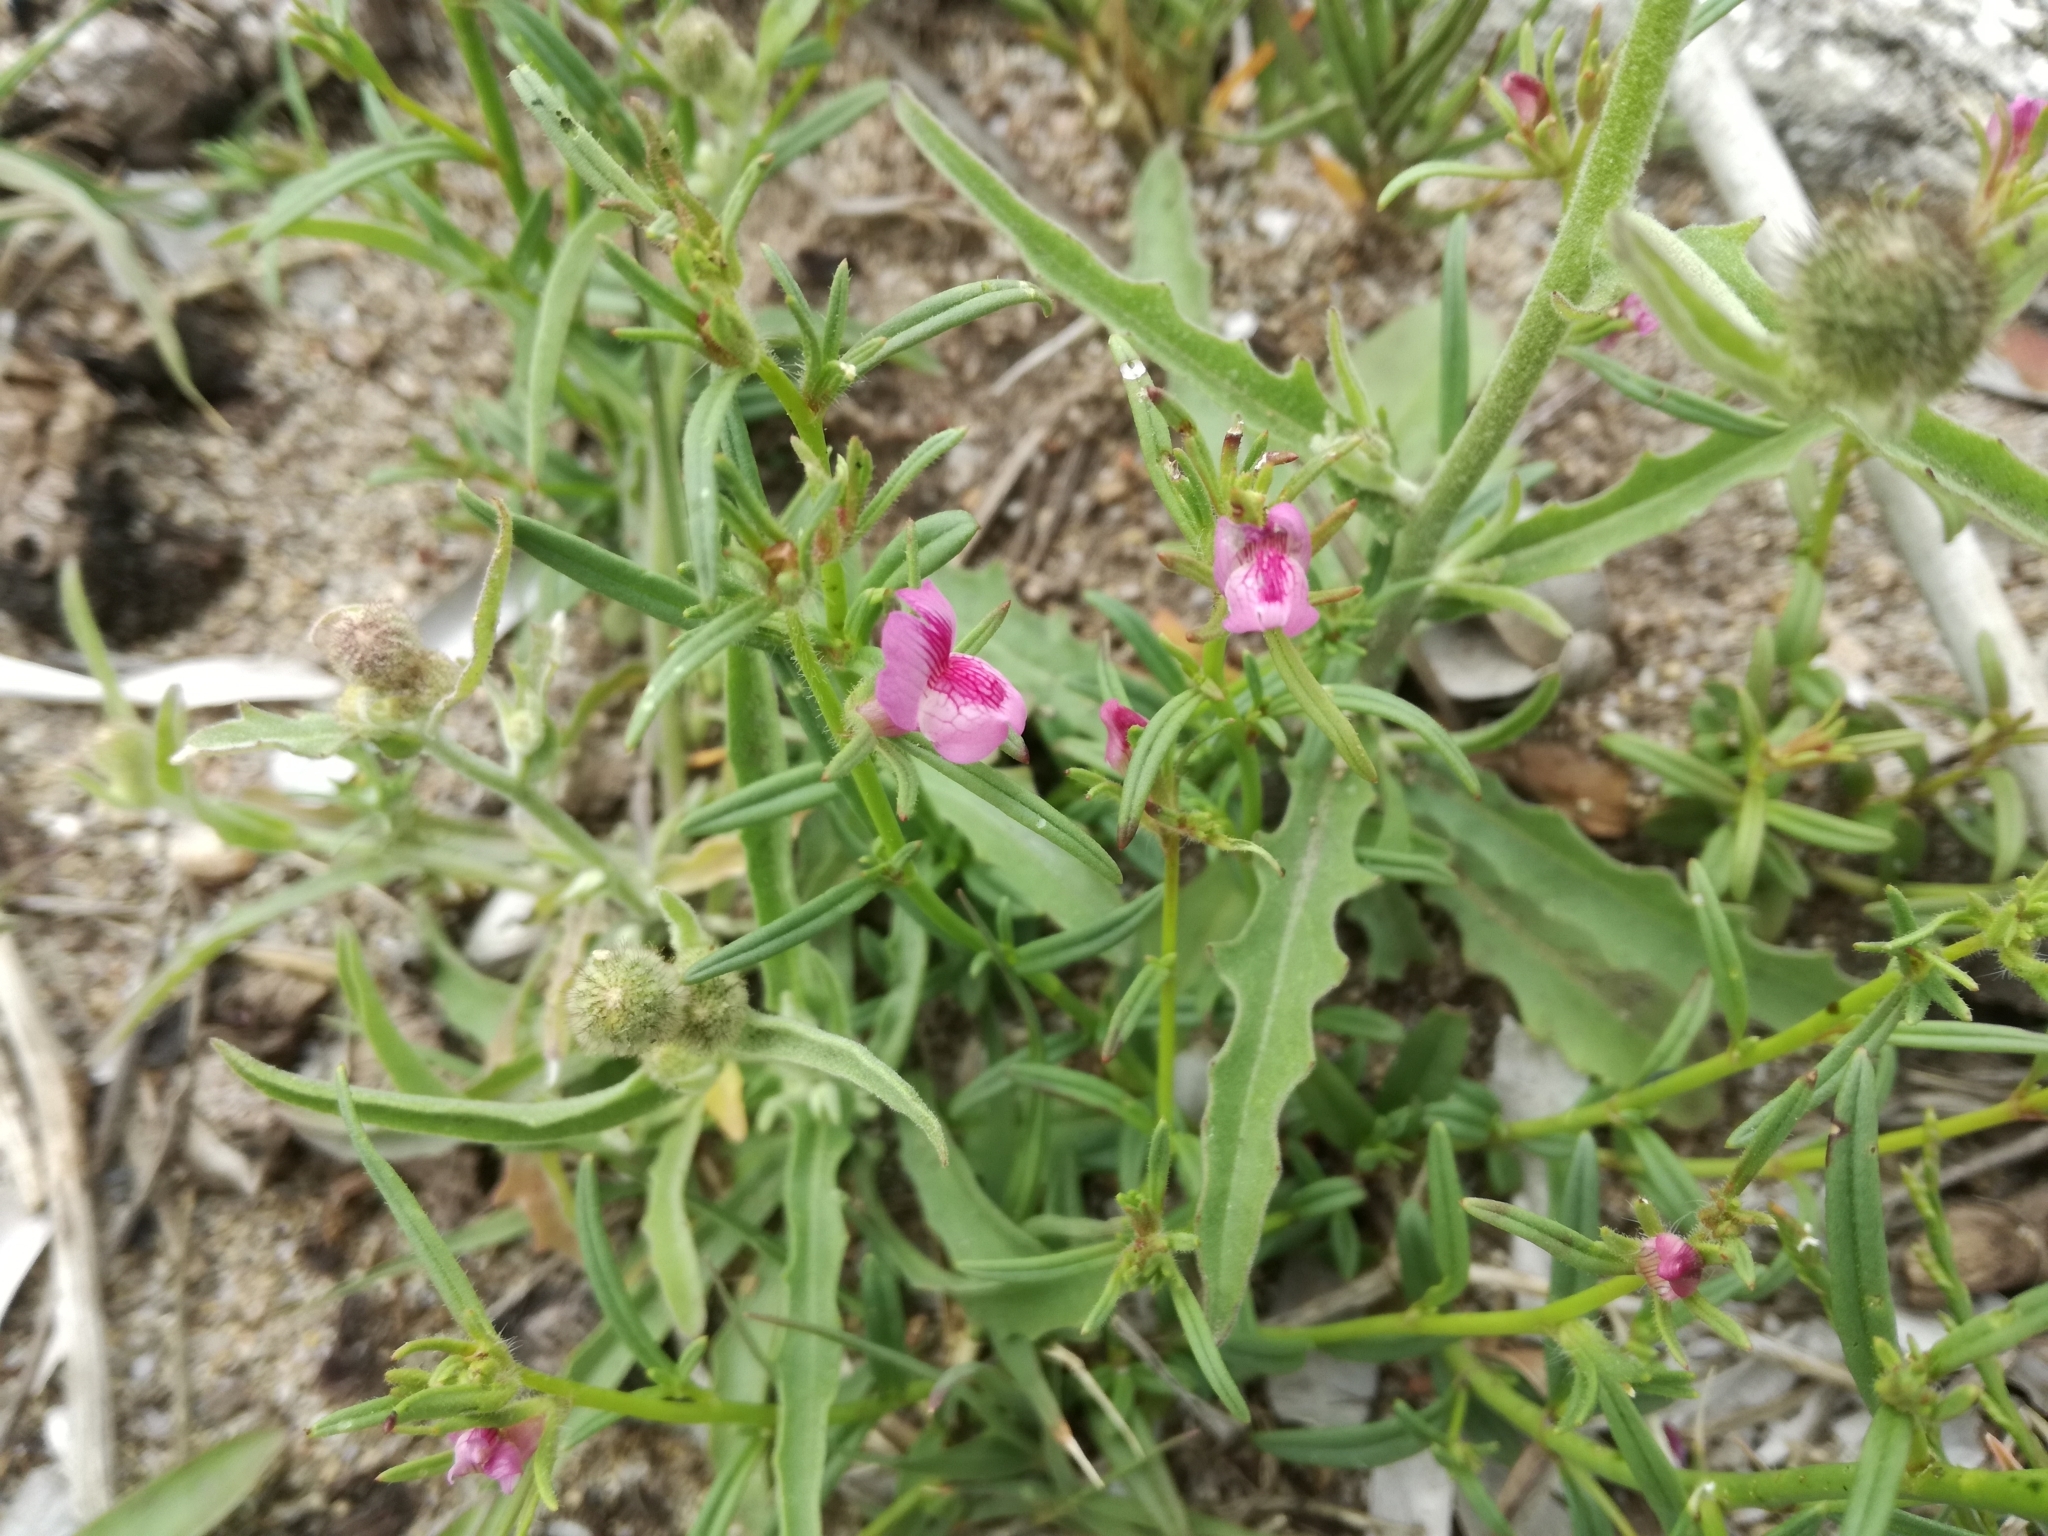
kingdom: Plantae
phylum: Tracheophyta
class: Magnoliopsida
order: Lamiales
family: Plantaginaceae
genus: Misopates
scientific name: Misopates orontium
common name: Weasel's-snout
